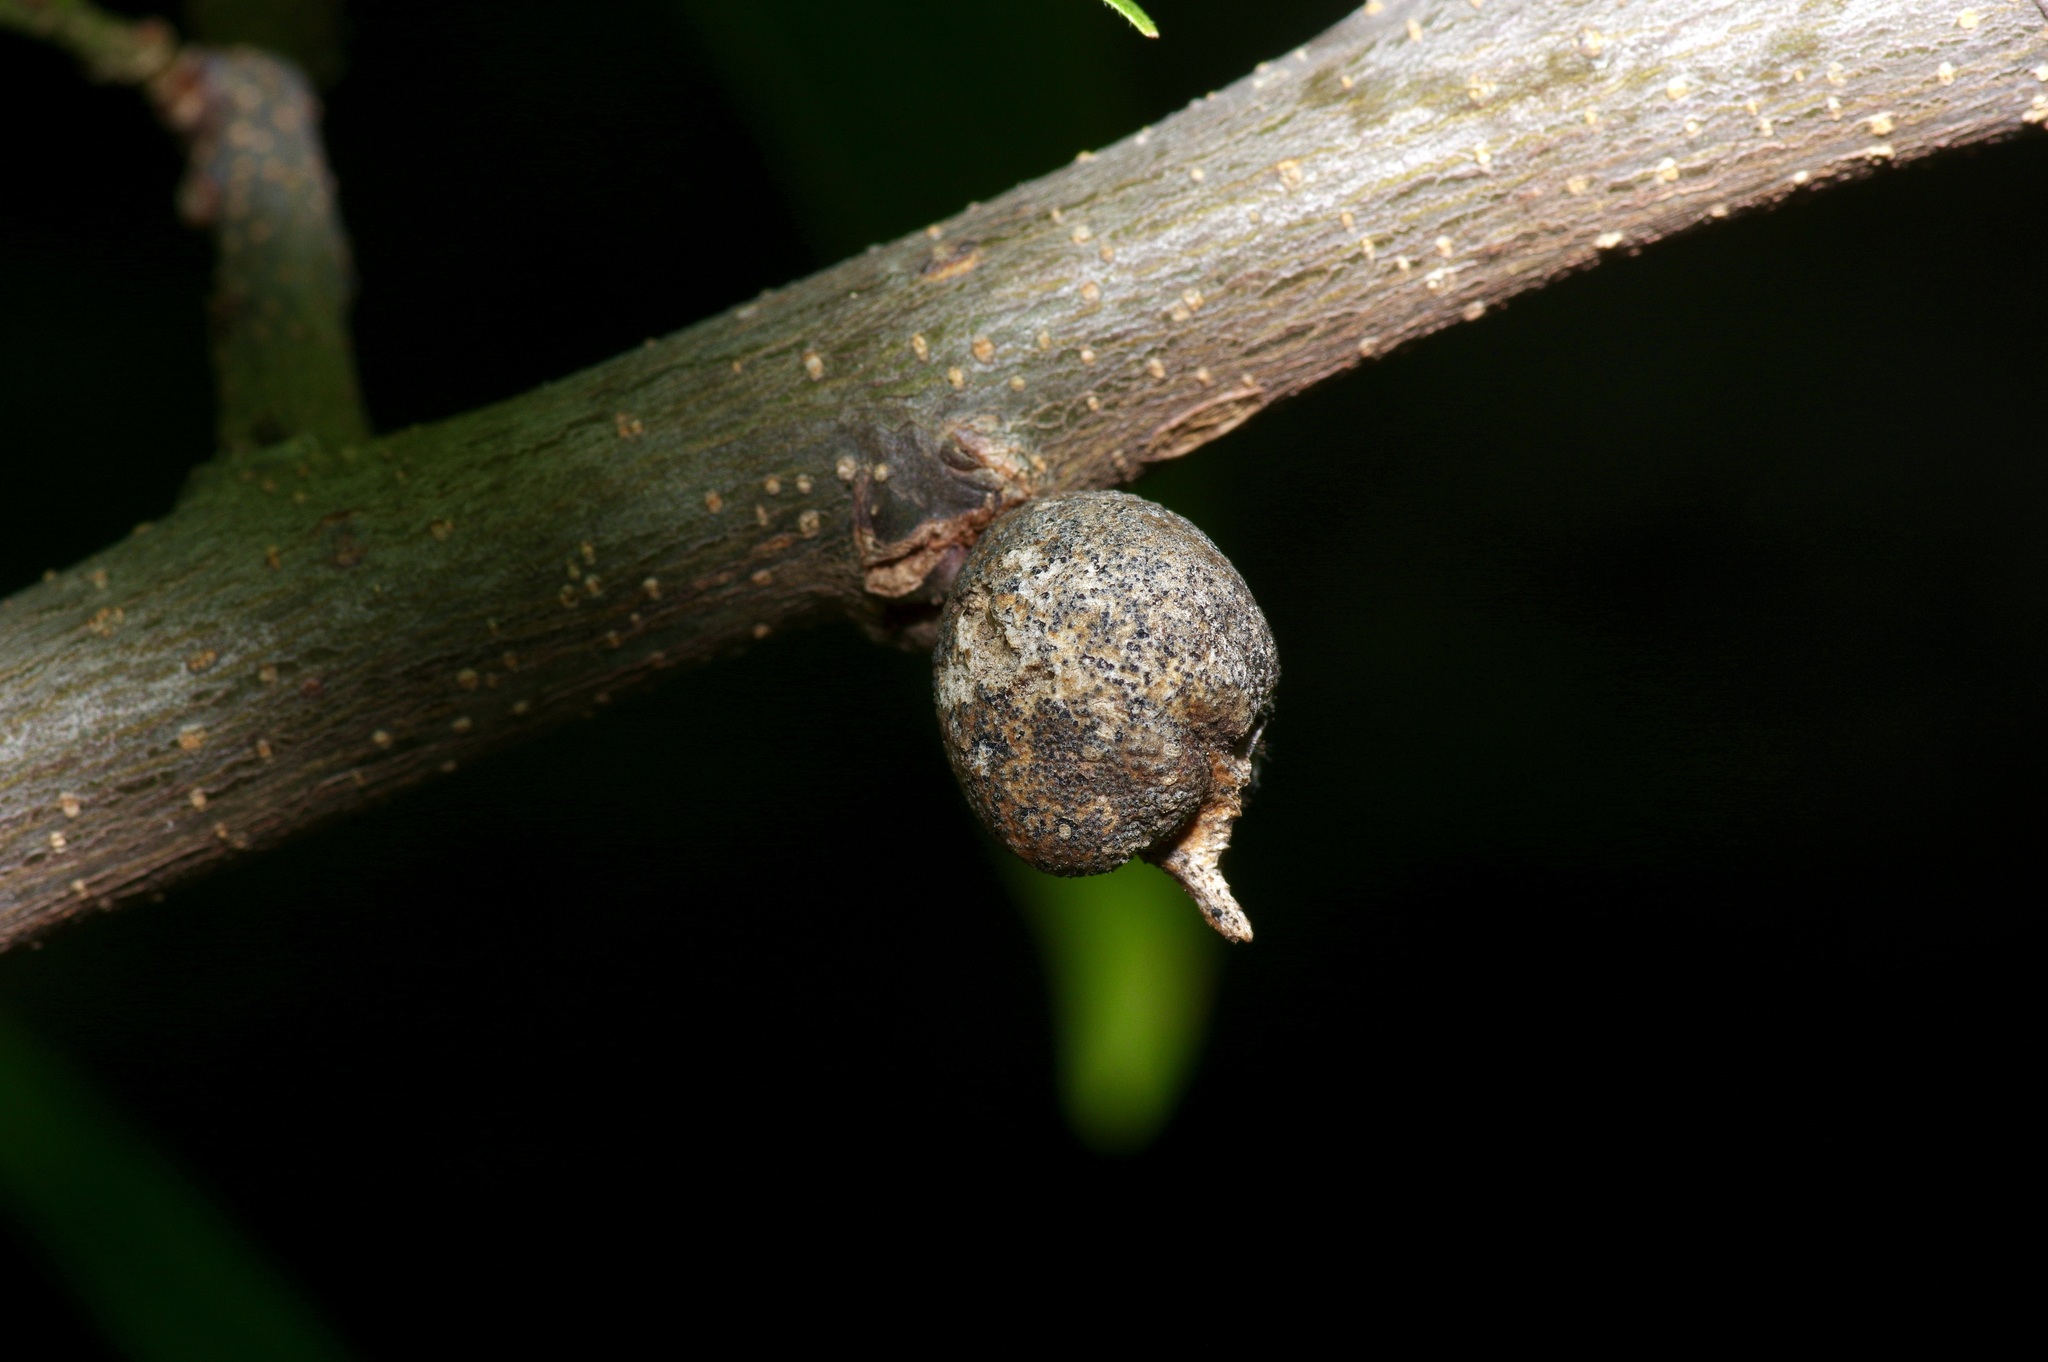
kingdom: Animalia
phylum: Arthropoda
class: Insecta
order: Hemiptera
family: Aphalaridae
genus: Pachypsylla
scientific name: Pachypsylla venusta
